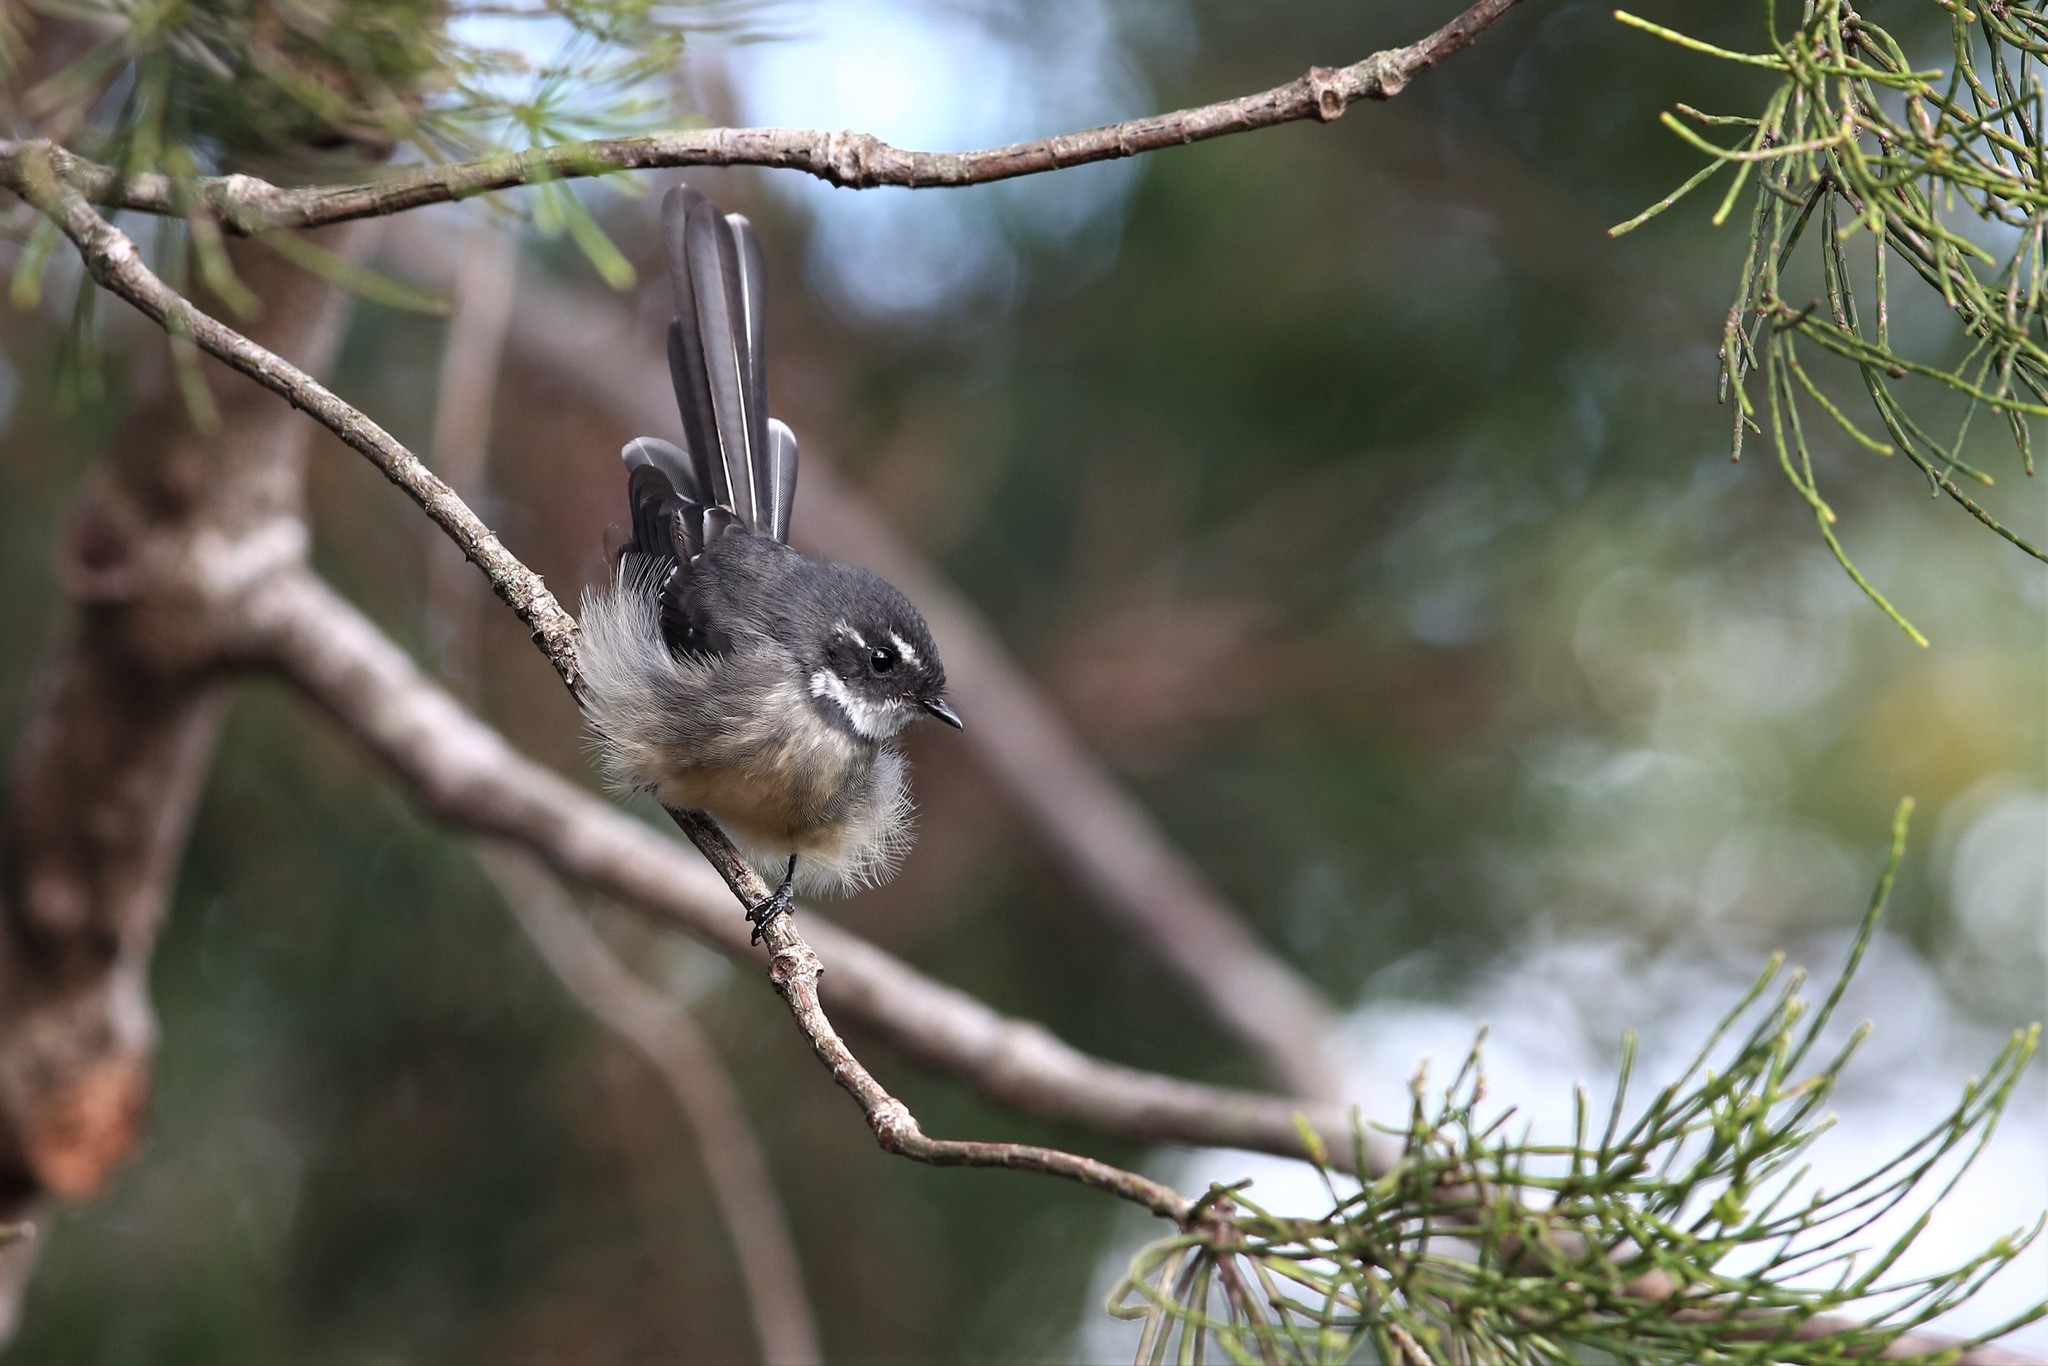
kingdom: Animalia
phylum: Chordata
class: Aves
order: Passeriformes
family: Rhipiduridae
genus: Rhipidura
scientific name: Rhipidura albiscapa
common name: Grey fantail
